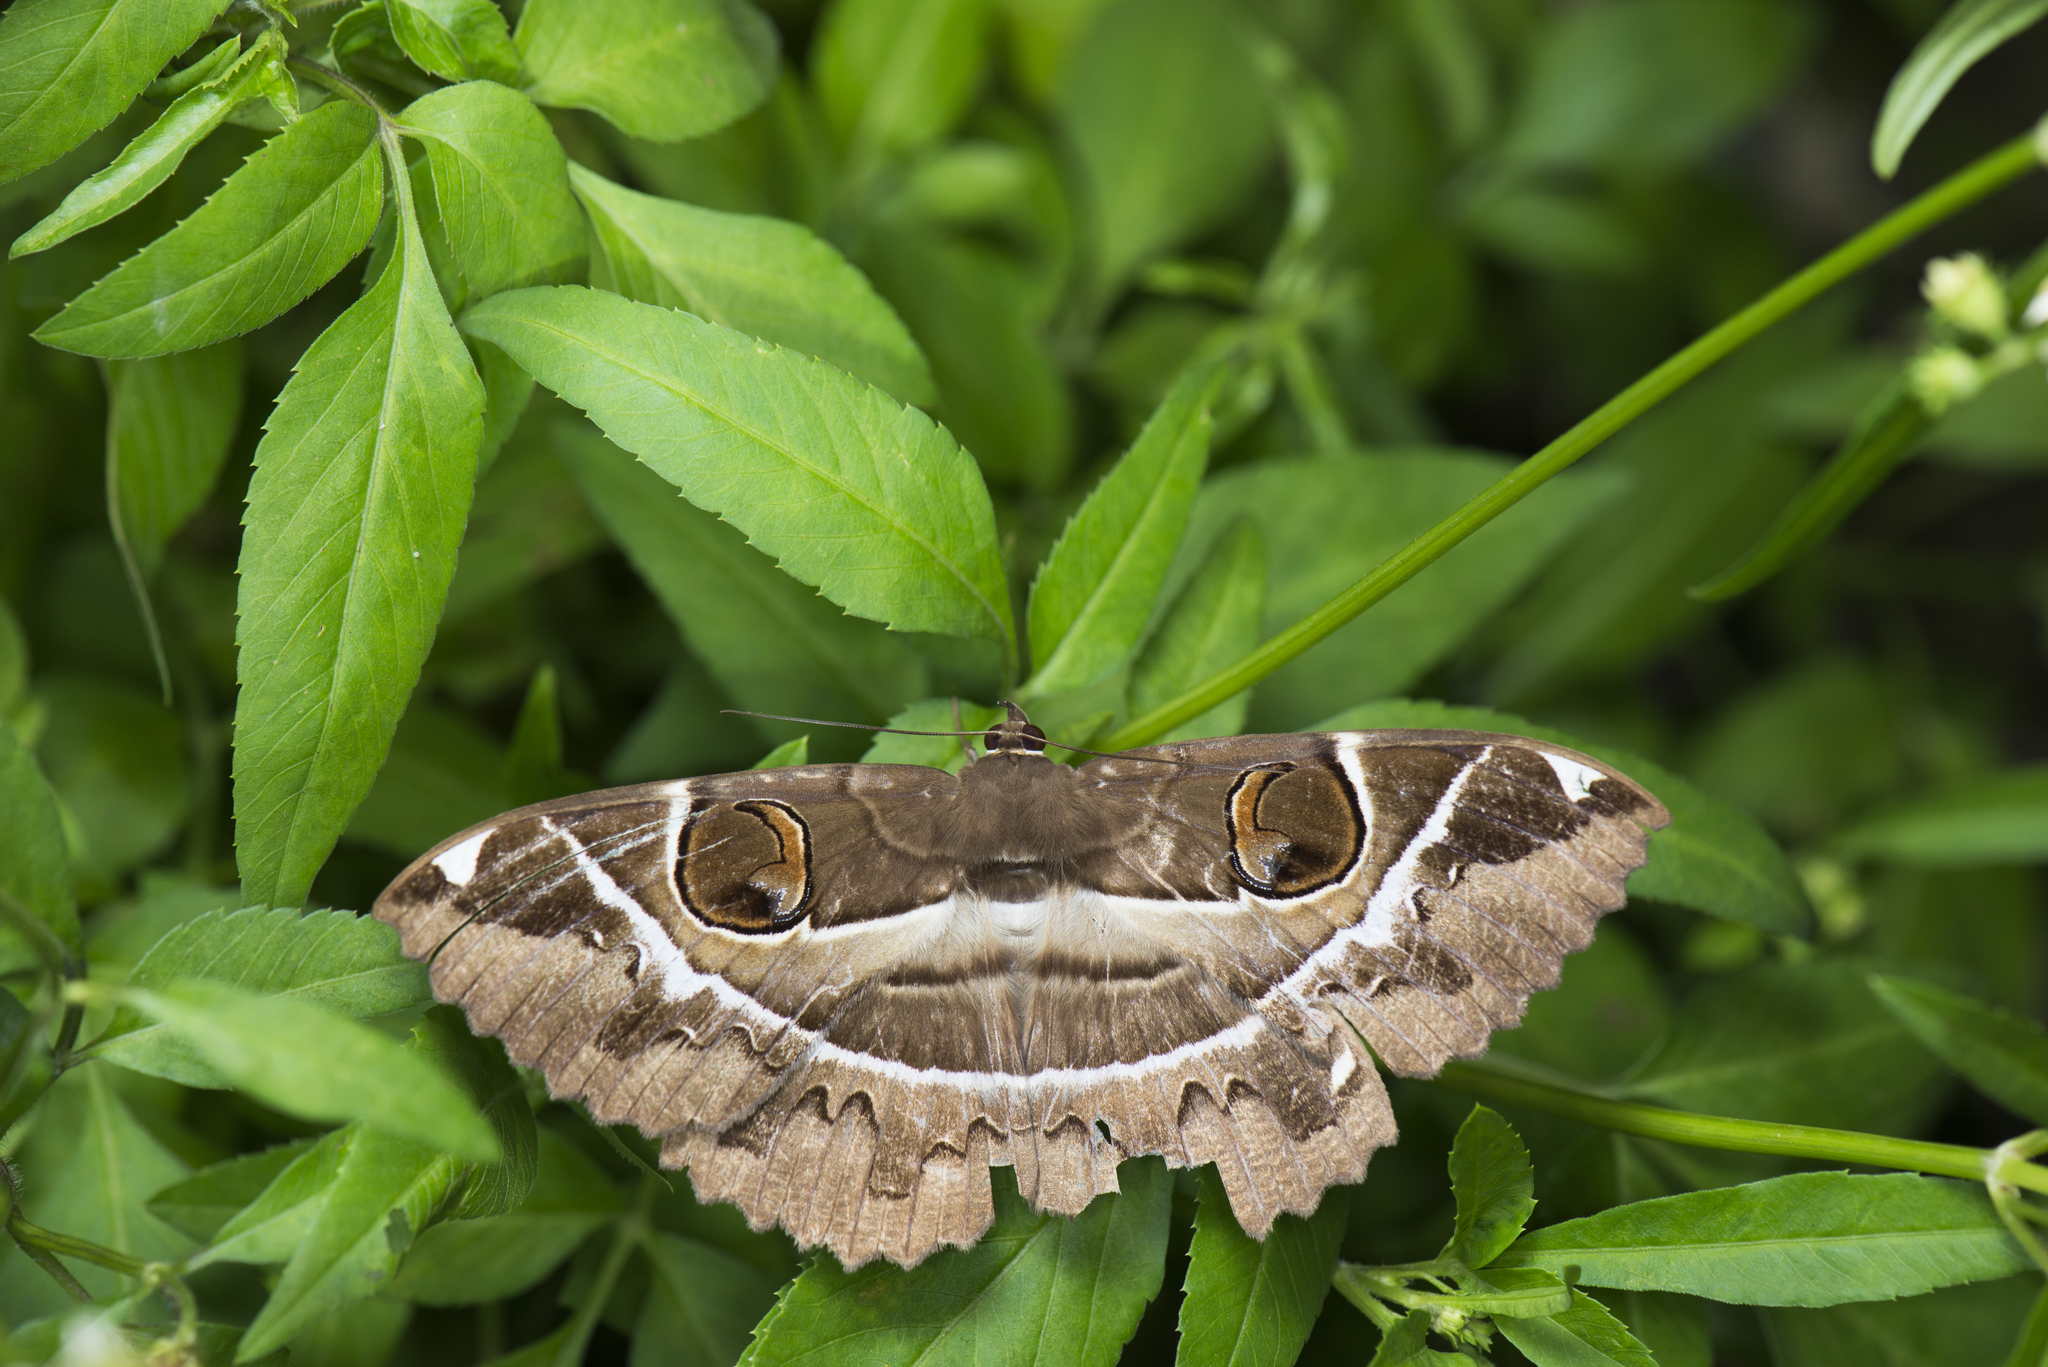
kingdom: Animalia
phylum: Arthropoda
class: Insecta
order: Lepidoptera
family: Erebidae
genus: Erebus
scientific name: Erebus ephesperis
